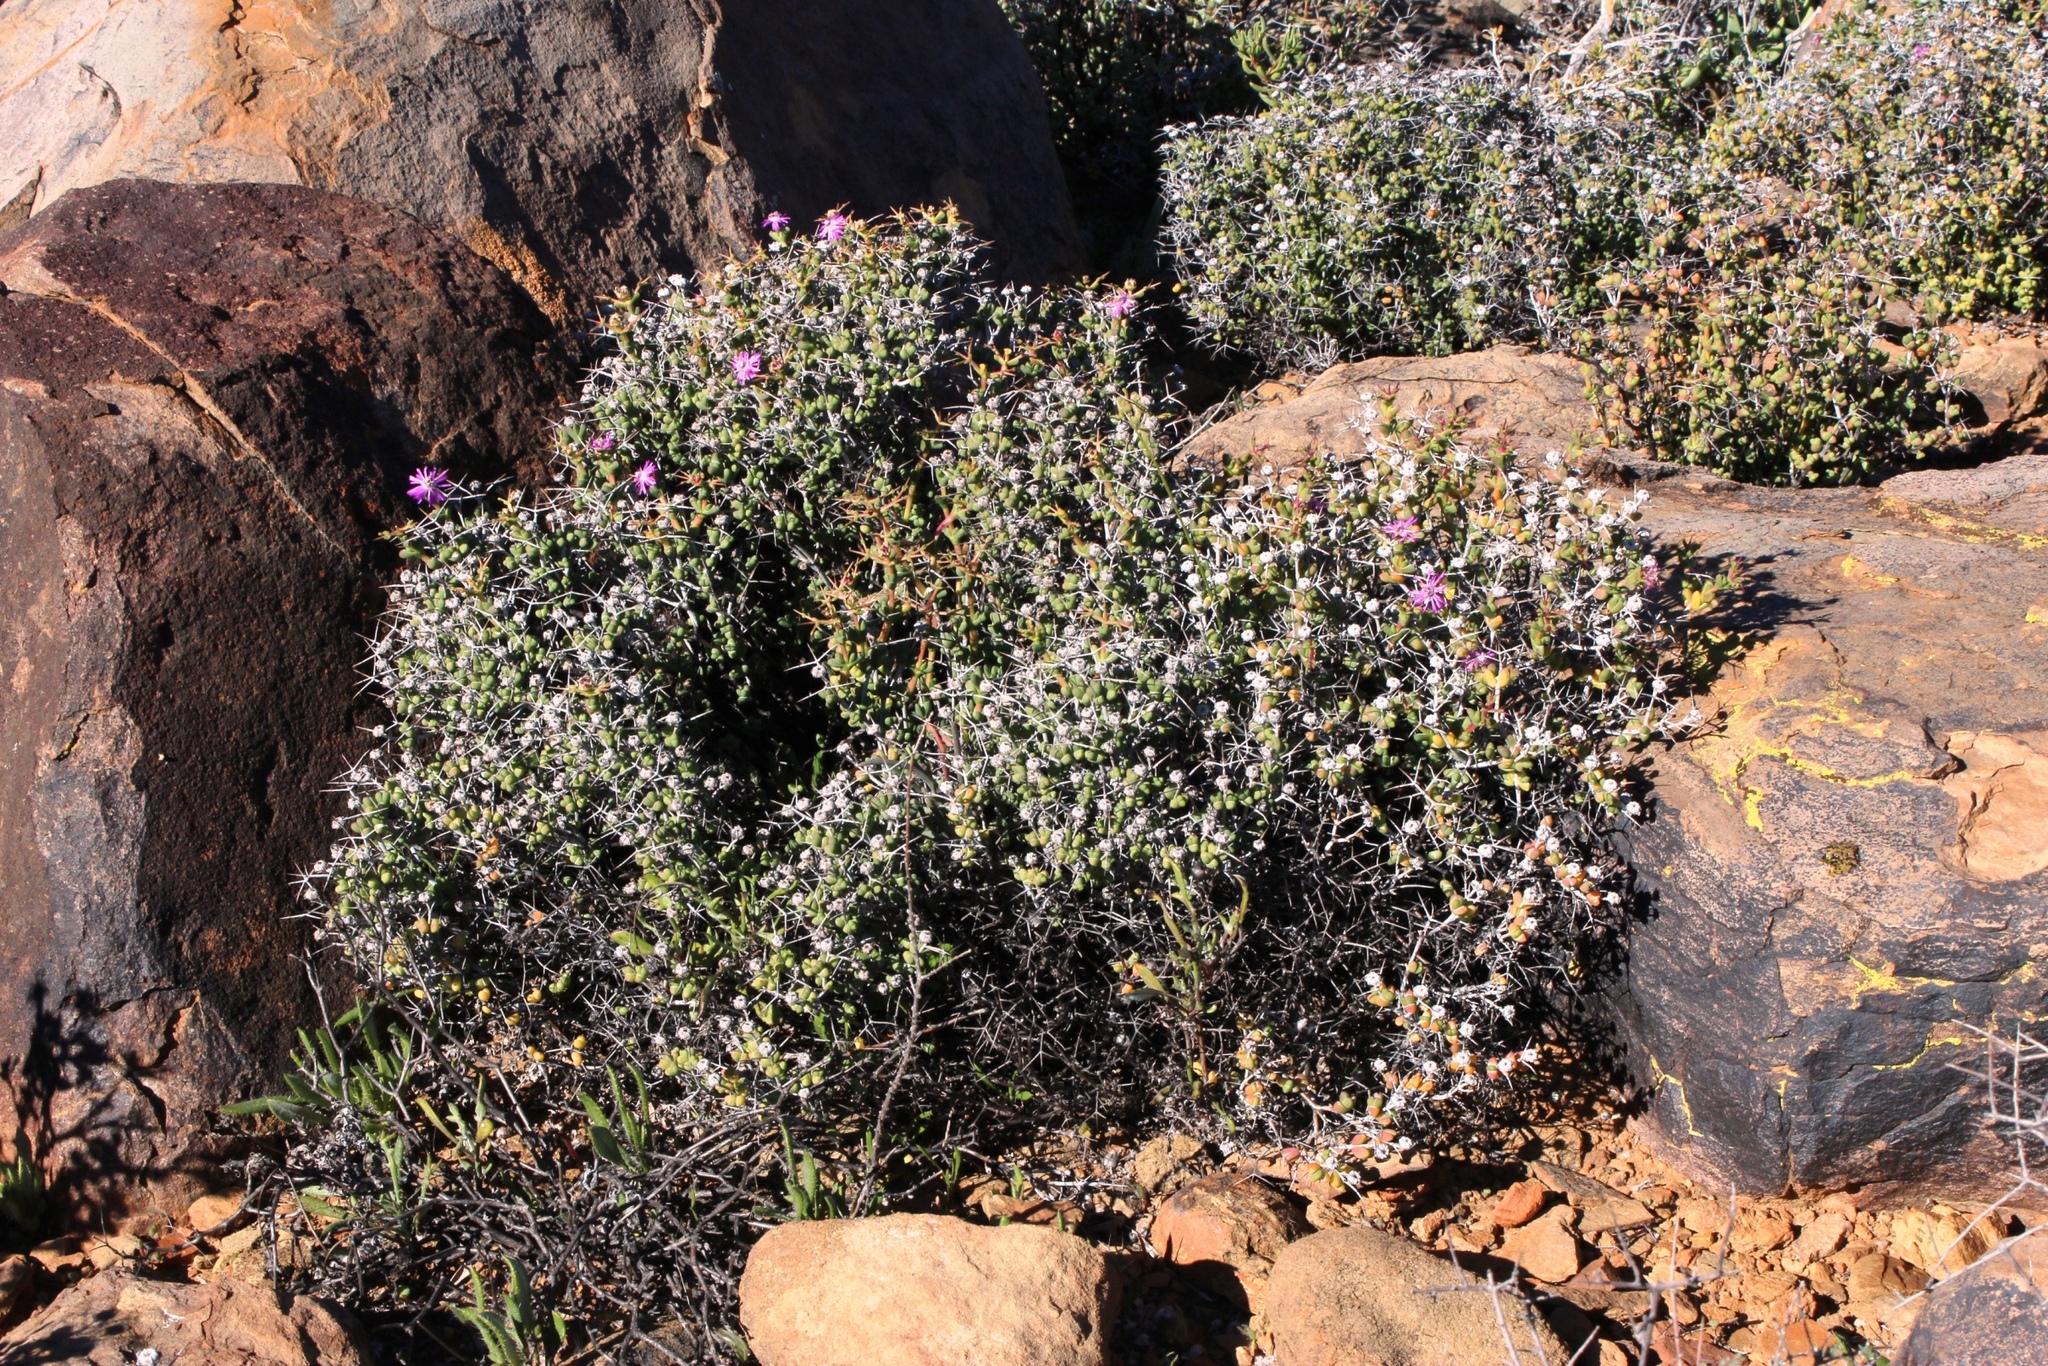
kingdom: Plantae
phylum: Tracheophyta
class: Magnoliopsida
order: Caryophyllales
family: Aizoaceae
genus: Schlechteranthus
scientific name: Schlechteranthus pungens
